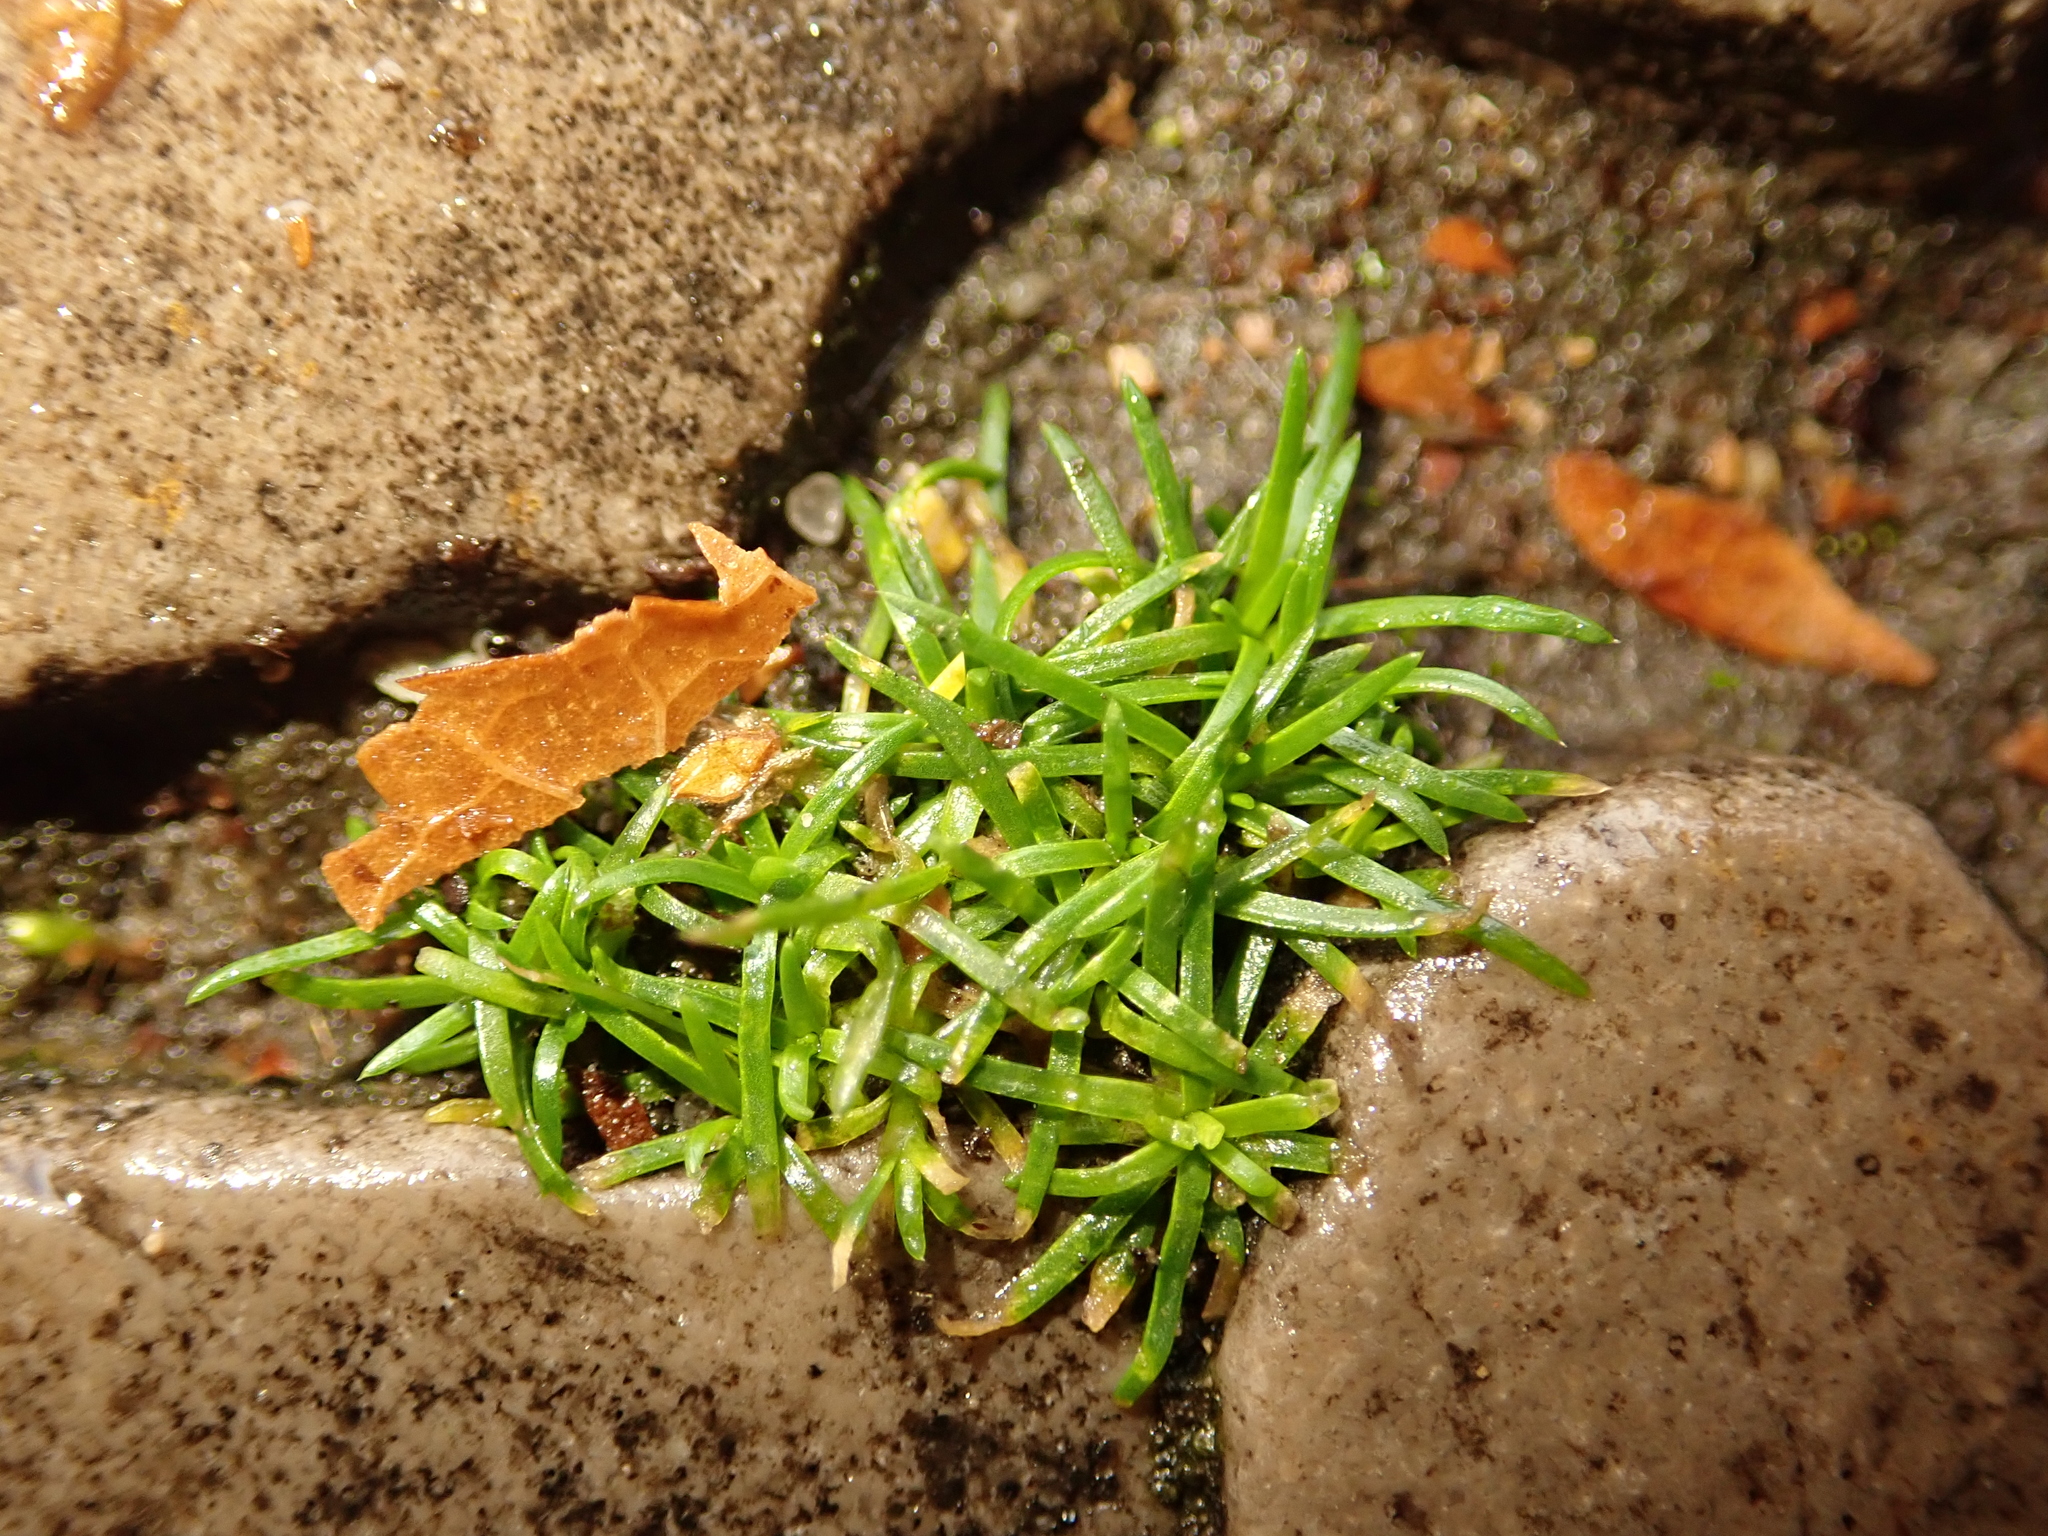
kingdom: Plantae
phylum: Tracheophyta
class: Magnoliopsida
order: Caryophyllales
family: Caryophyllaceae
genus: Sagina
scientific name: Sagina procumbens
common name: Procumbent pearlwort
